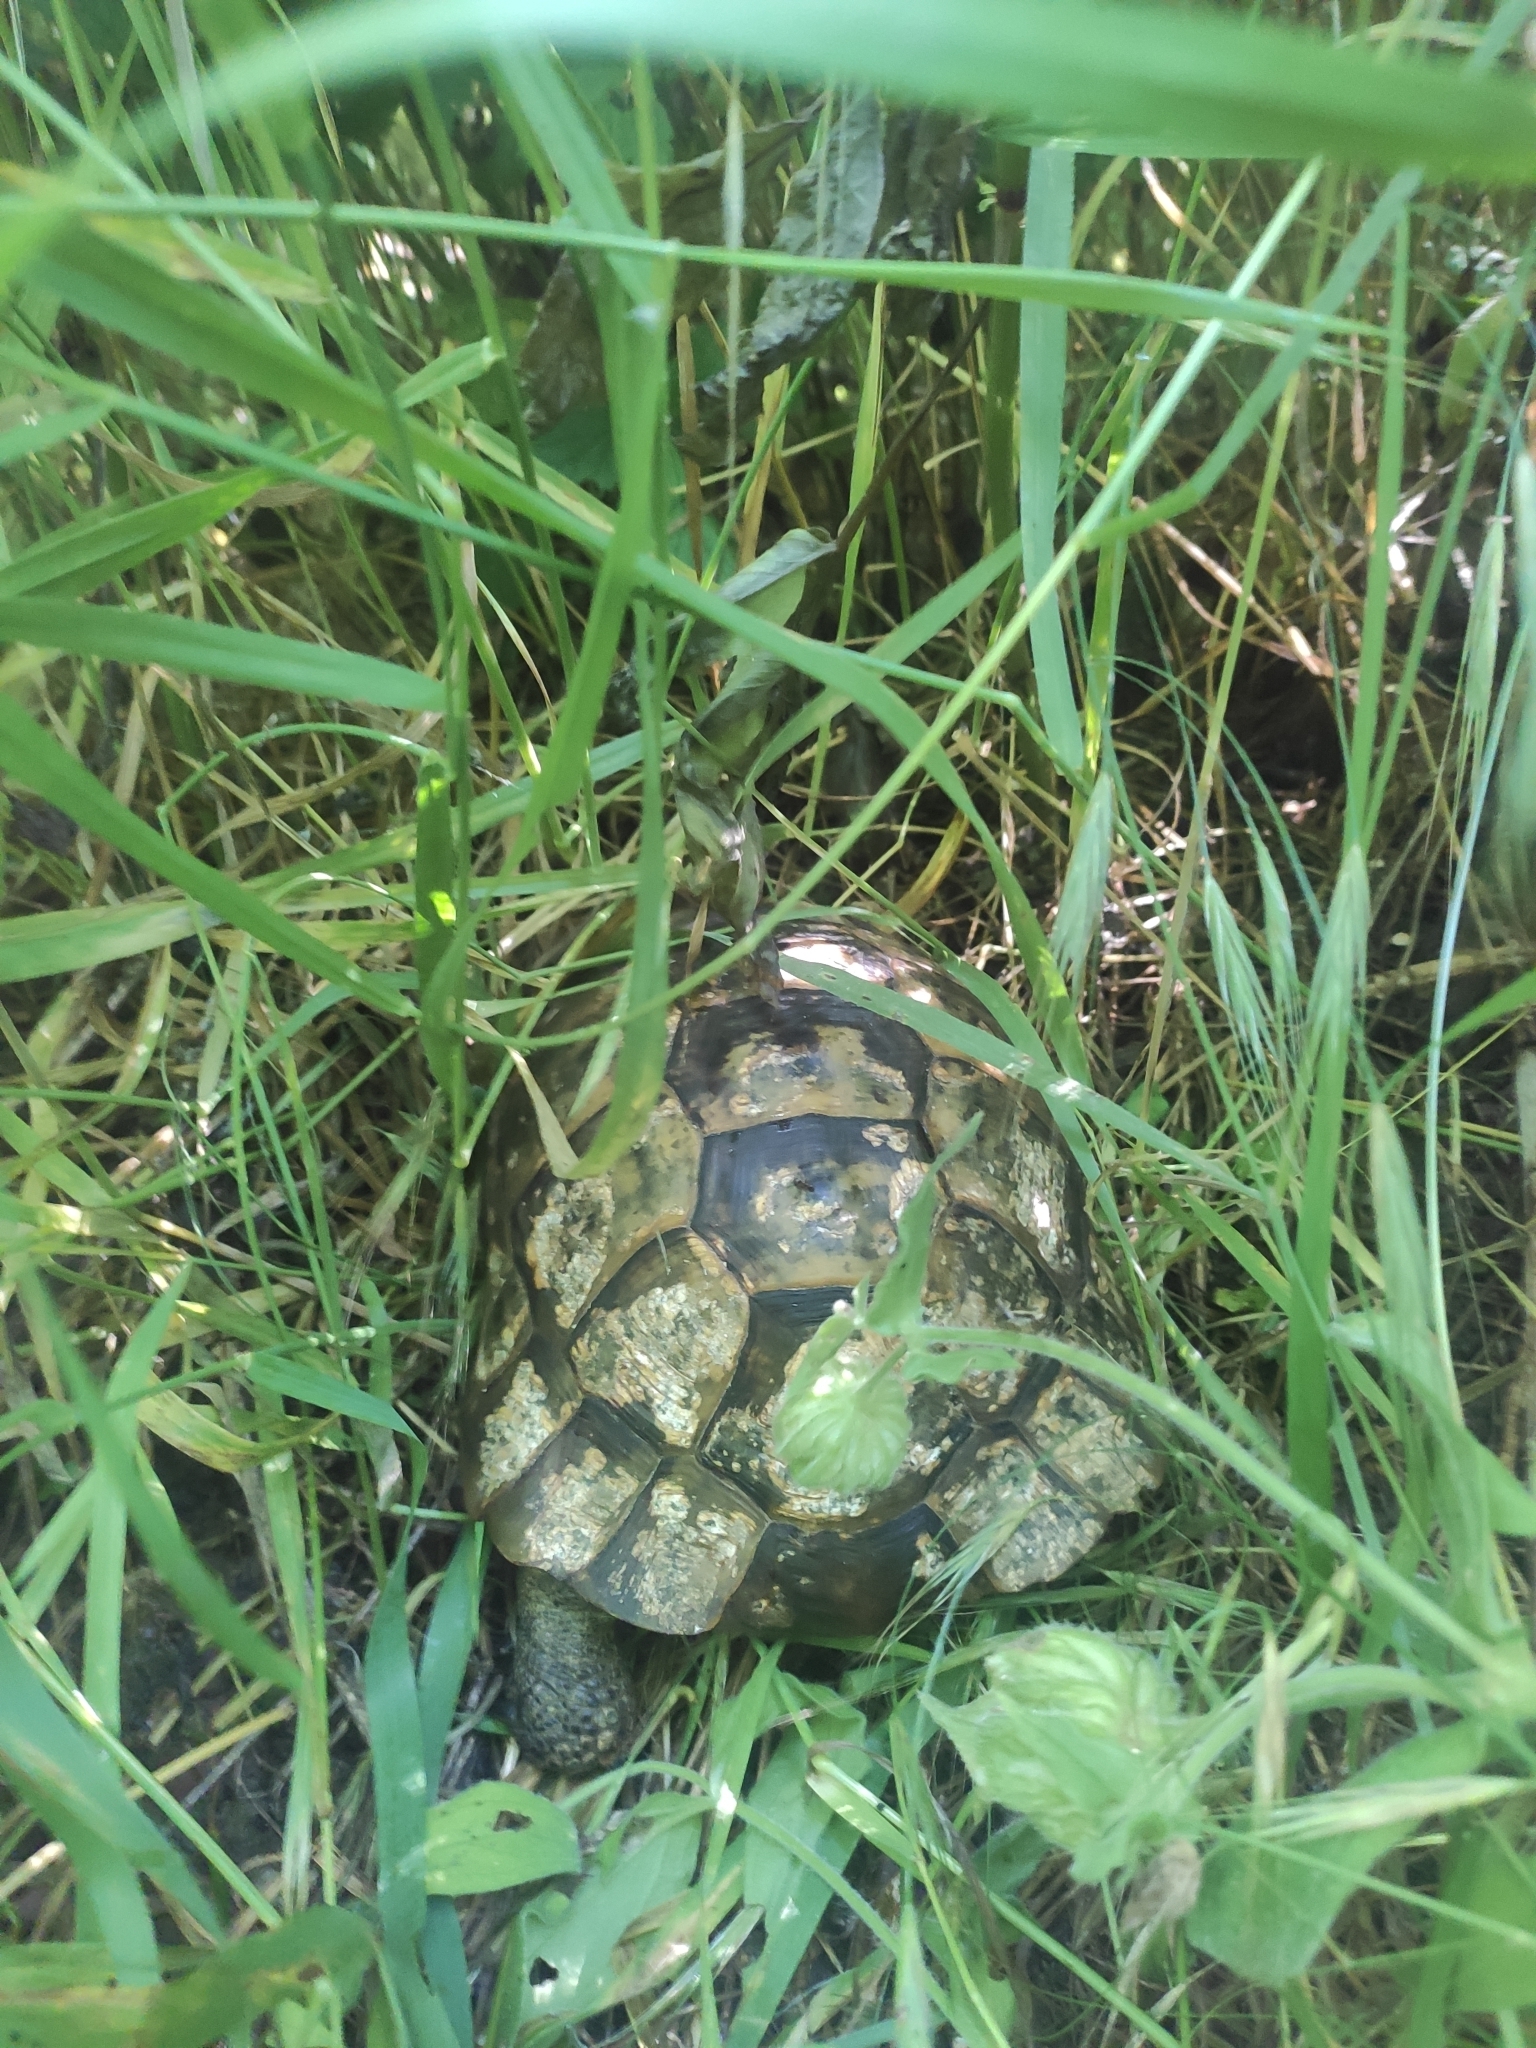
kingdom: Animalia
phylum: Chordata
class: Testudines
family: Testudinidae
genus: Testudo
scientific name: Testudo graeca
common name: Common tortoise
